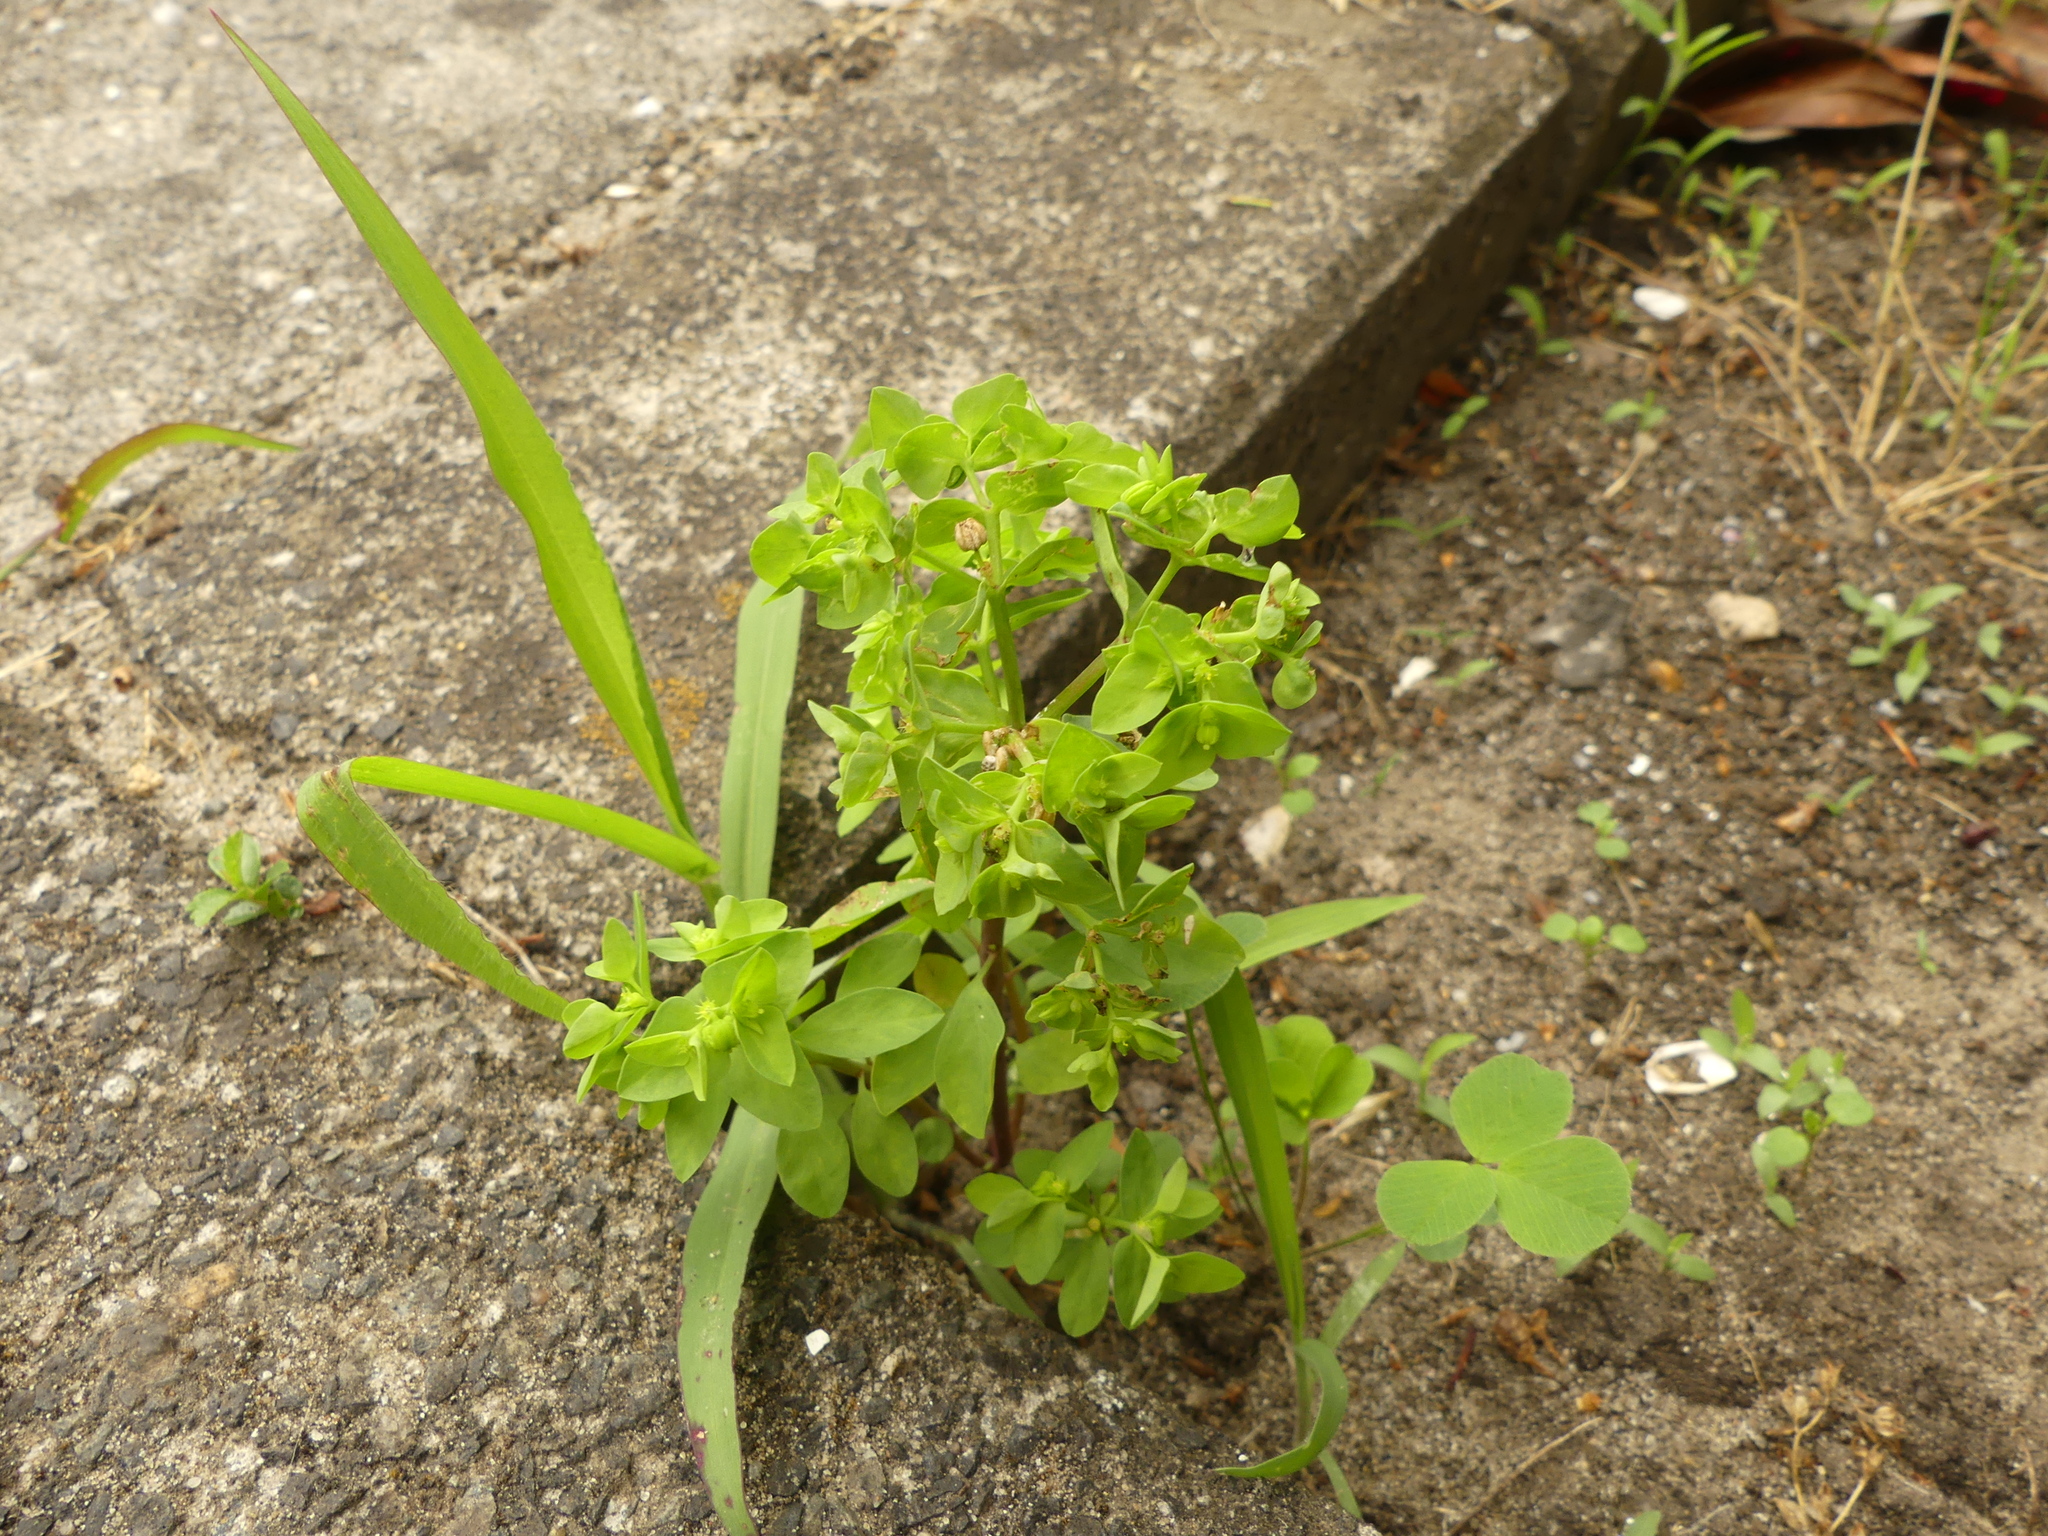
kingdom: Plantae
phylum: Tracheophyta
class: Magnoliopsida
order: Malpighiales
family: Euphorbiaceae
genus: Euphorbia
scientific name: Euphorbia peplus
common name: Petty spurge
